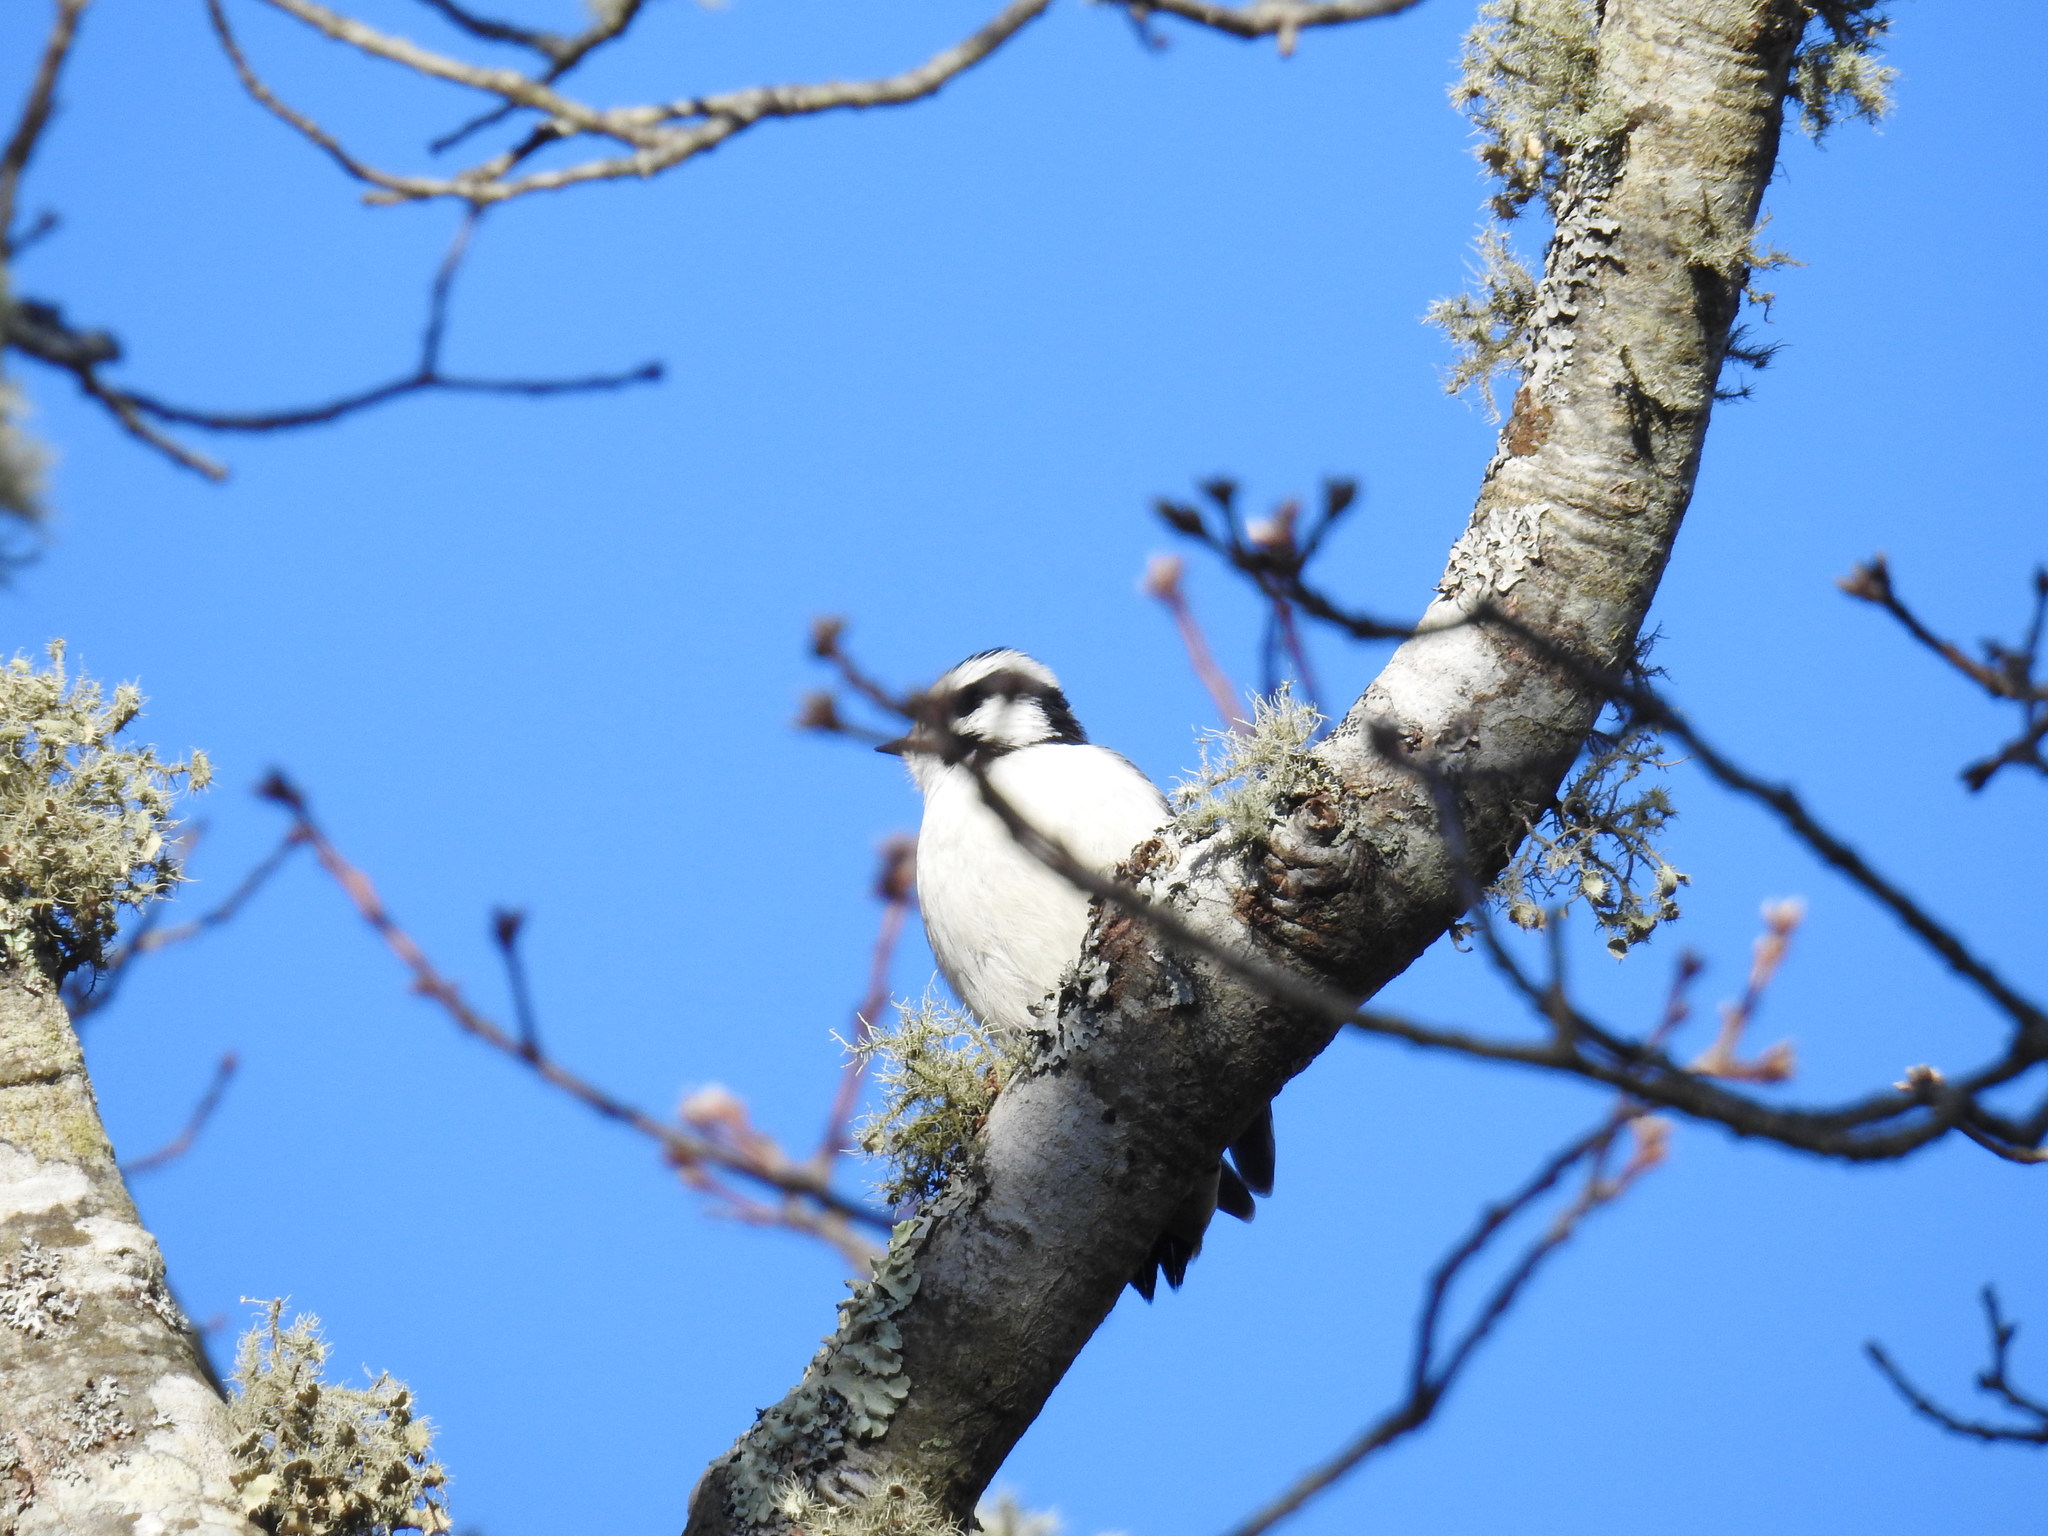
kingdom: Animalia
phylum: Chordata
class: Aves
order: Piciformes
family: Picidae
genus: Dryobates
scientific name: Dryobates pubescens
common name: Downy woodpecker
